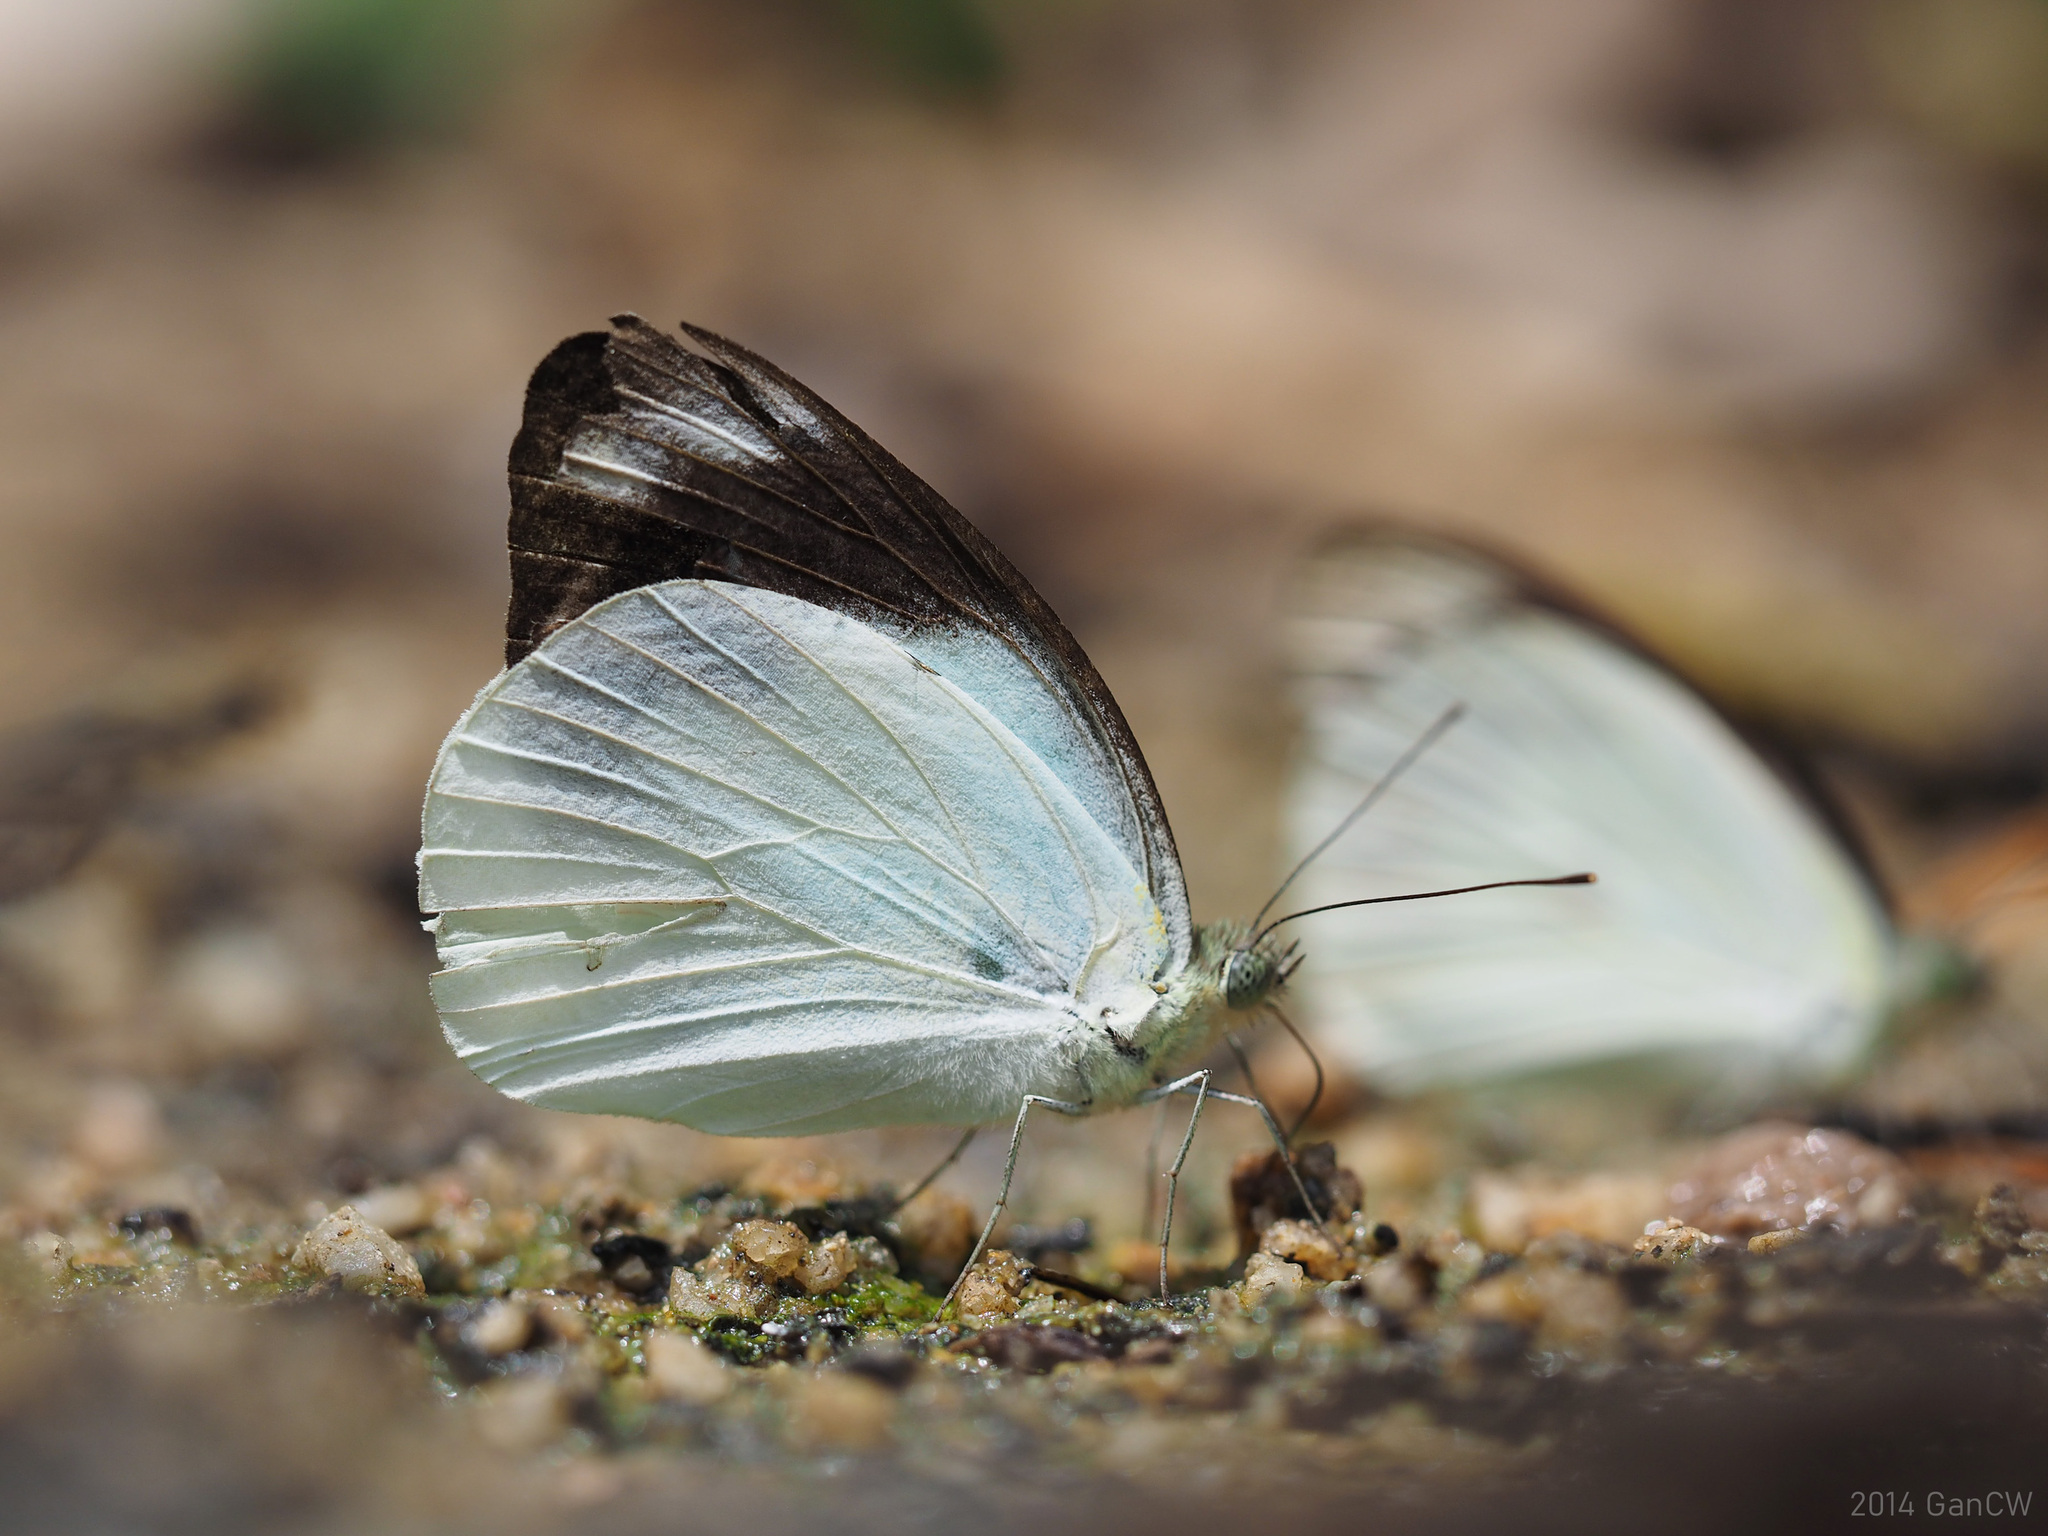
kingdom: Animalia
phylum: Arthropoda
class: Insecta
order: Lepidoptera
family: Pieridae
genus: Appias
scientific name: Appias indra
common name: Plain puffin
